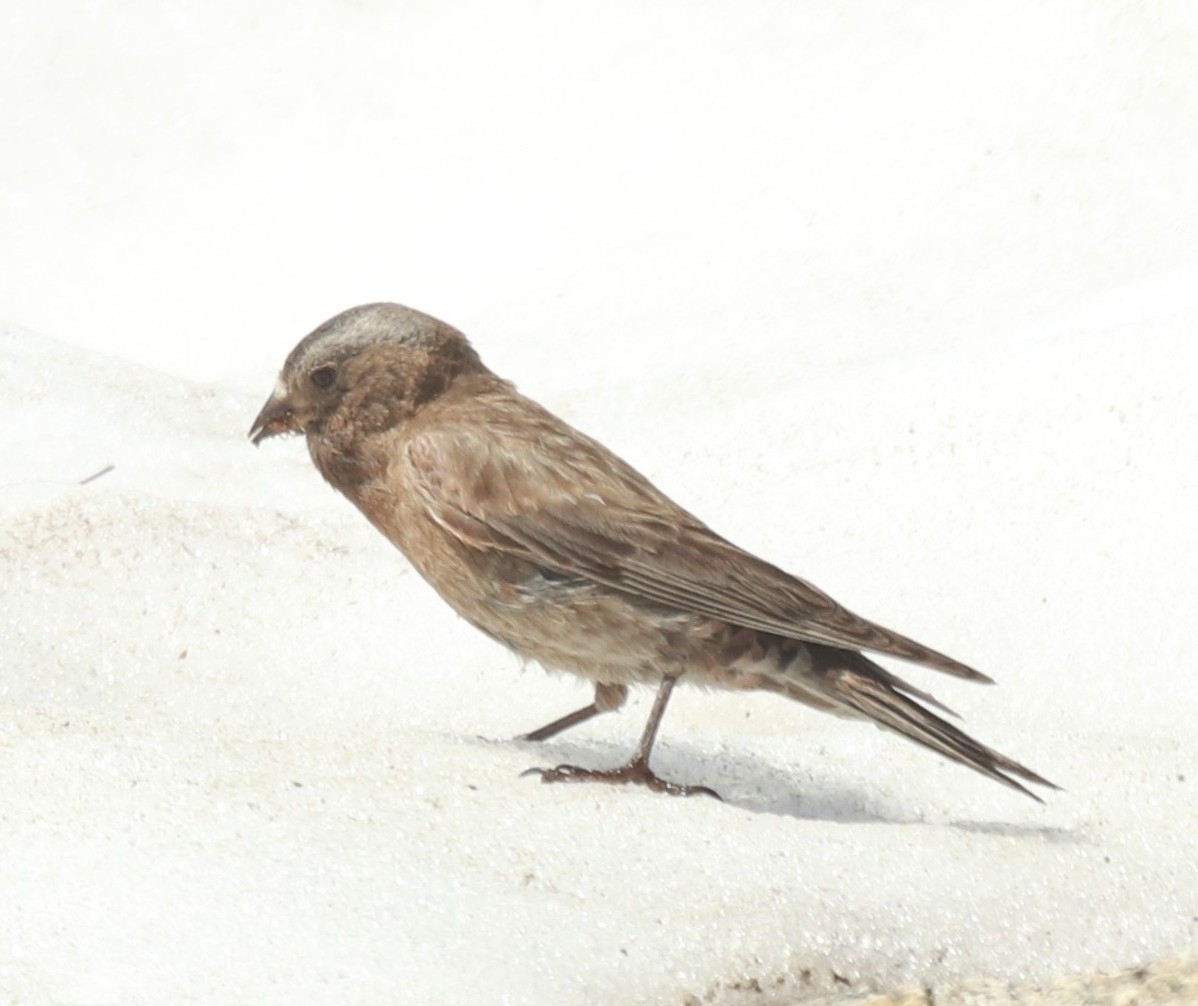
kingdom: Animalia
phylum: Chordata
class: Aves
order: Passeriformes
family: Fringillidae
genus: Leucosticte
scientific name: Leucosticte tephrocotis
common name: Gray-crowned rosy-finch
